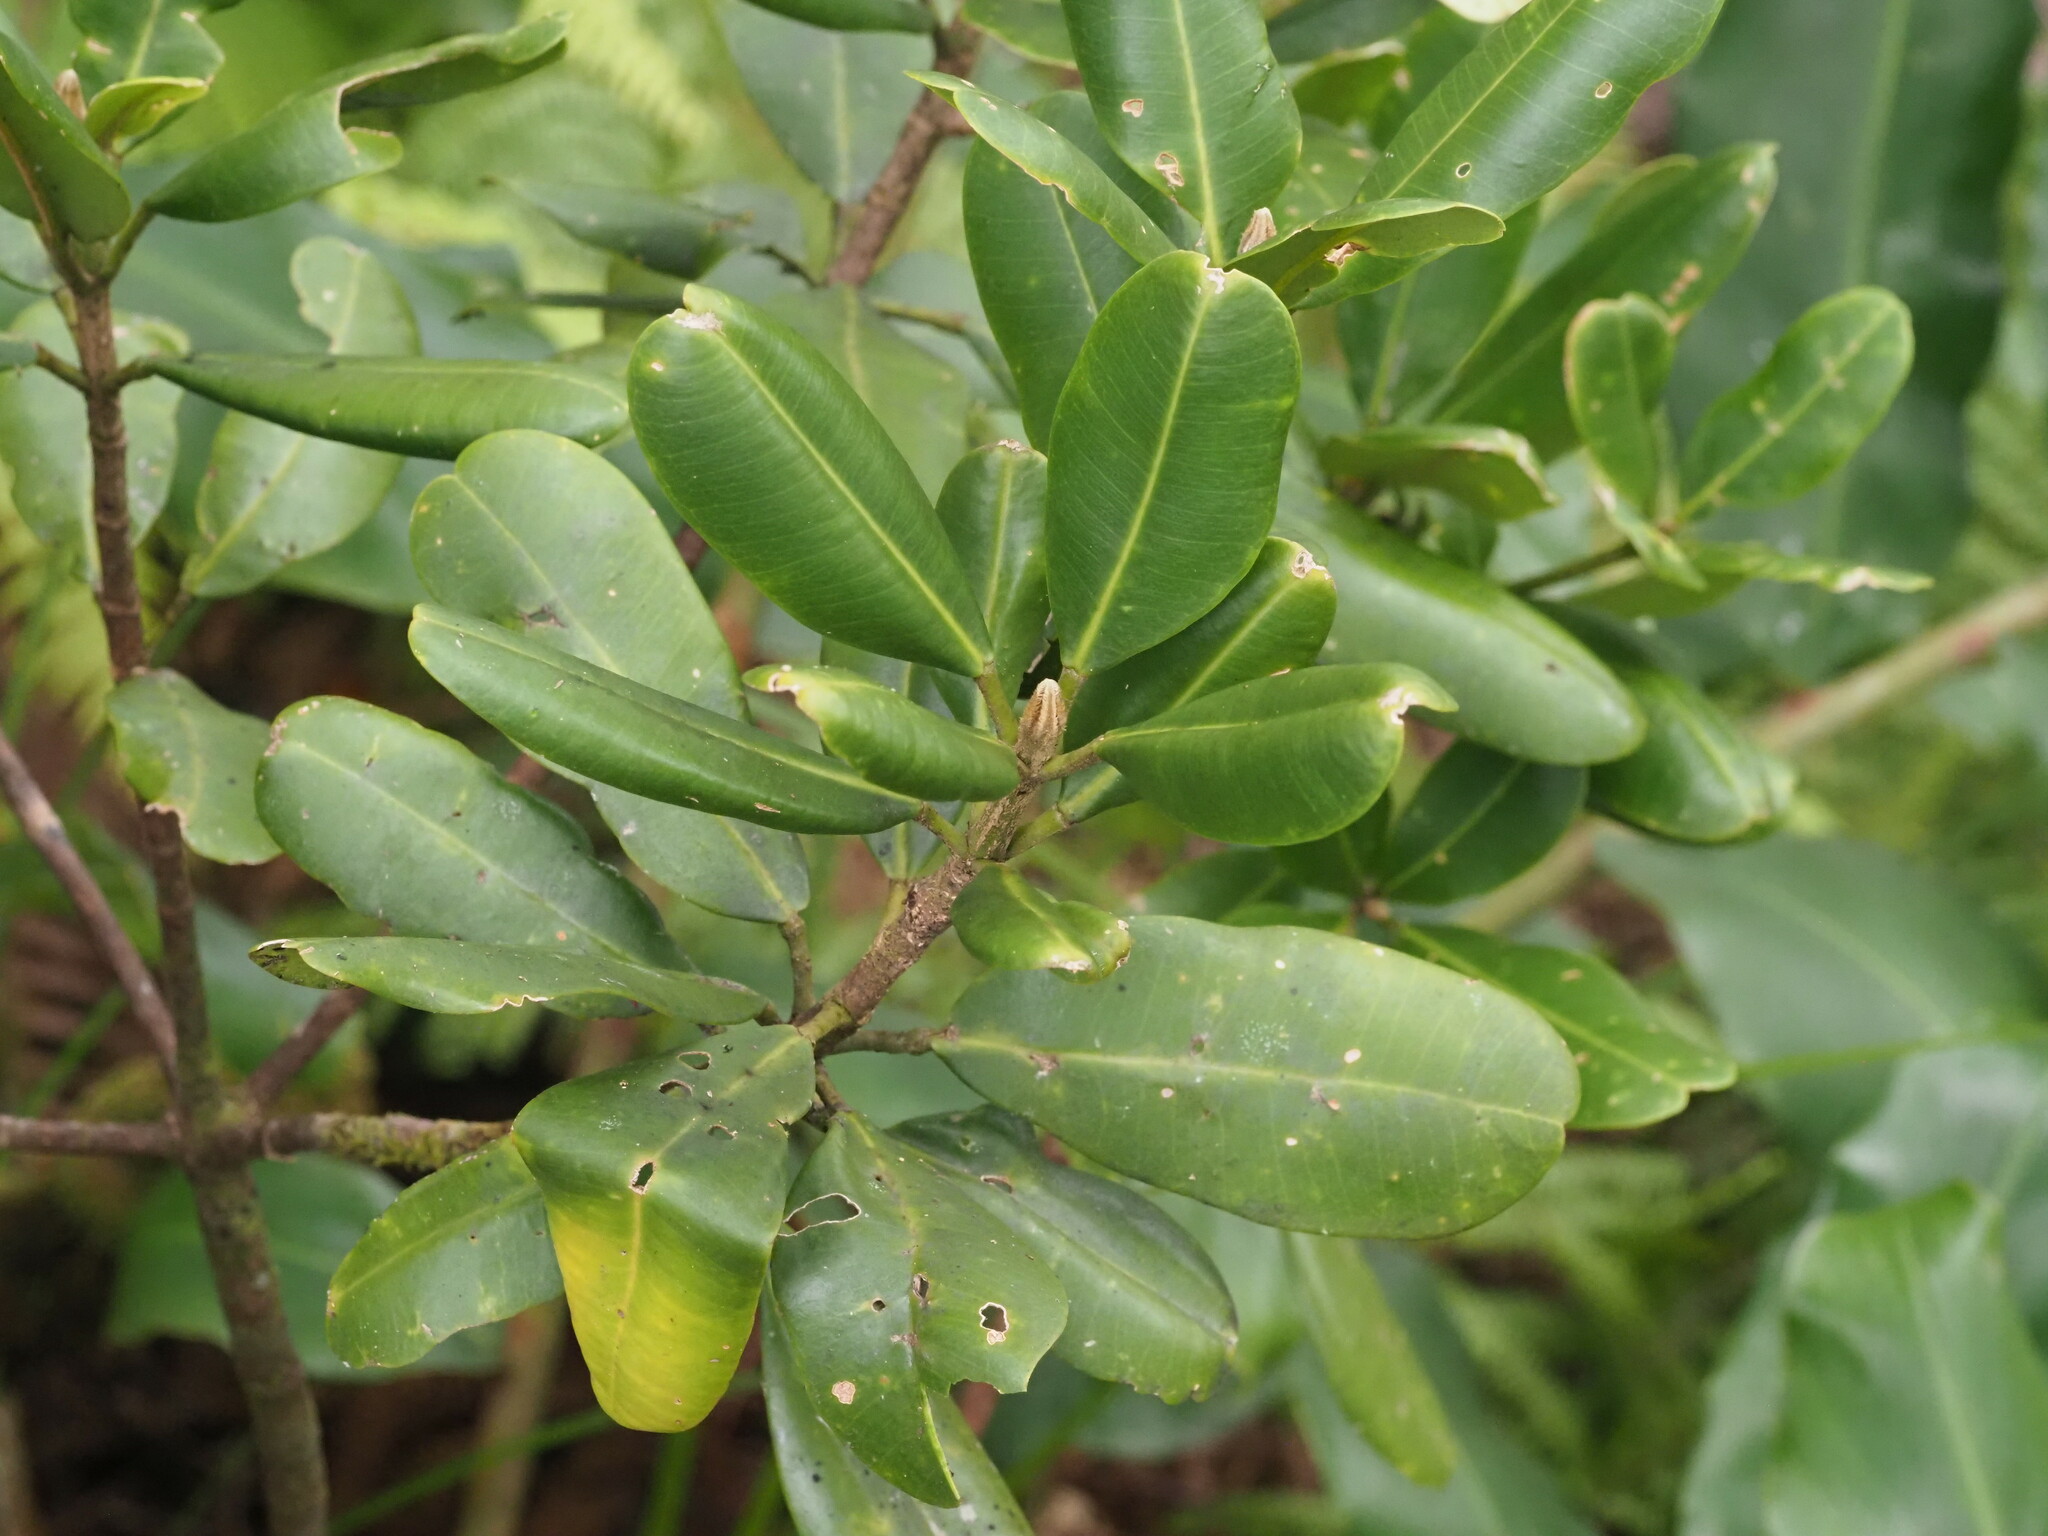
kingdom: Plantae
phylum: Tracheophyta
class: Magnoliopsida
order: Sapindales
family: Rutaceae
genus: Melicope
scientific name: Melicope clusiifolia
